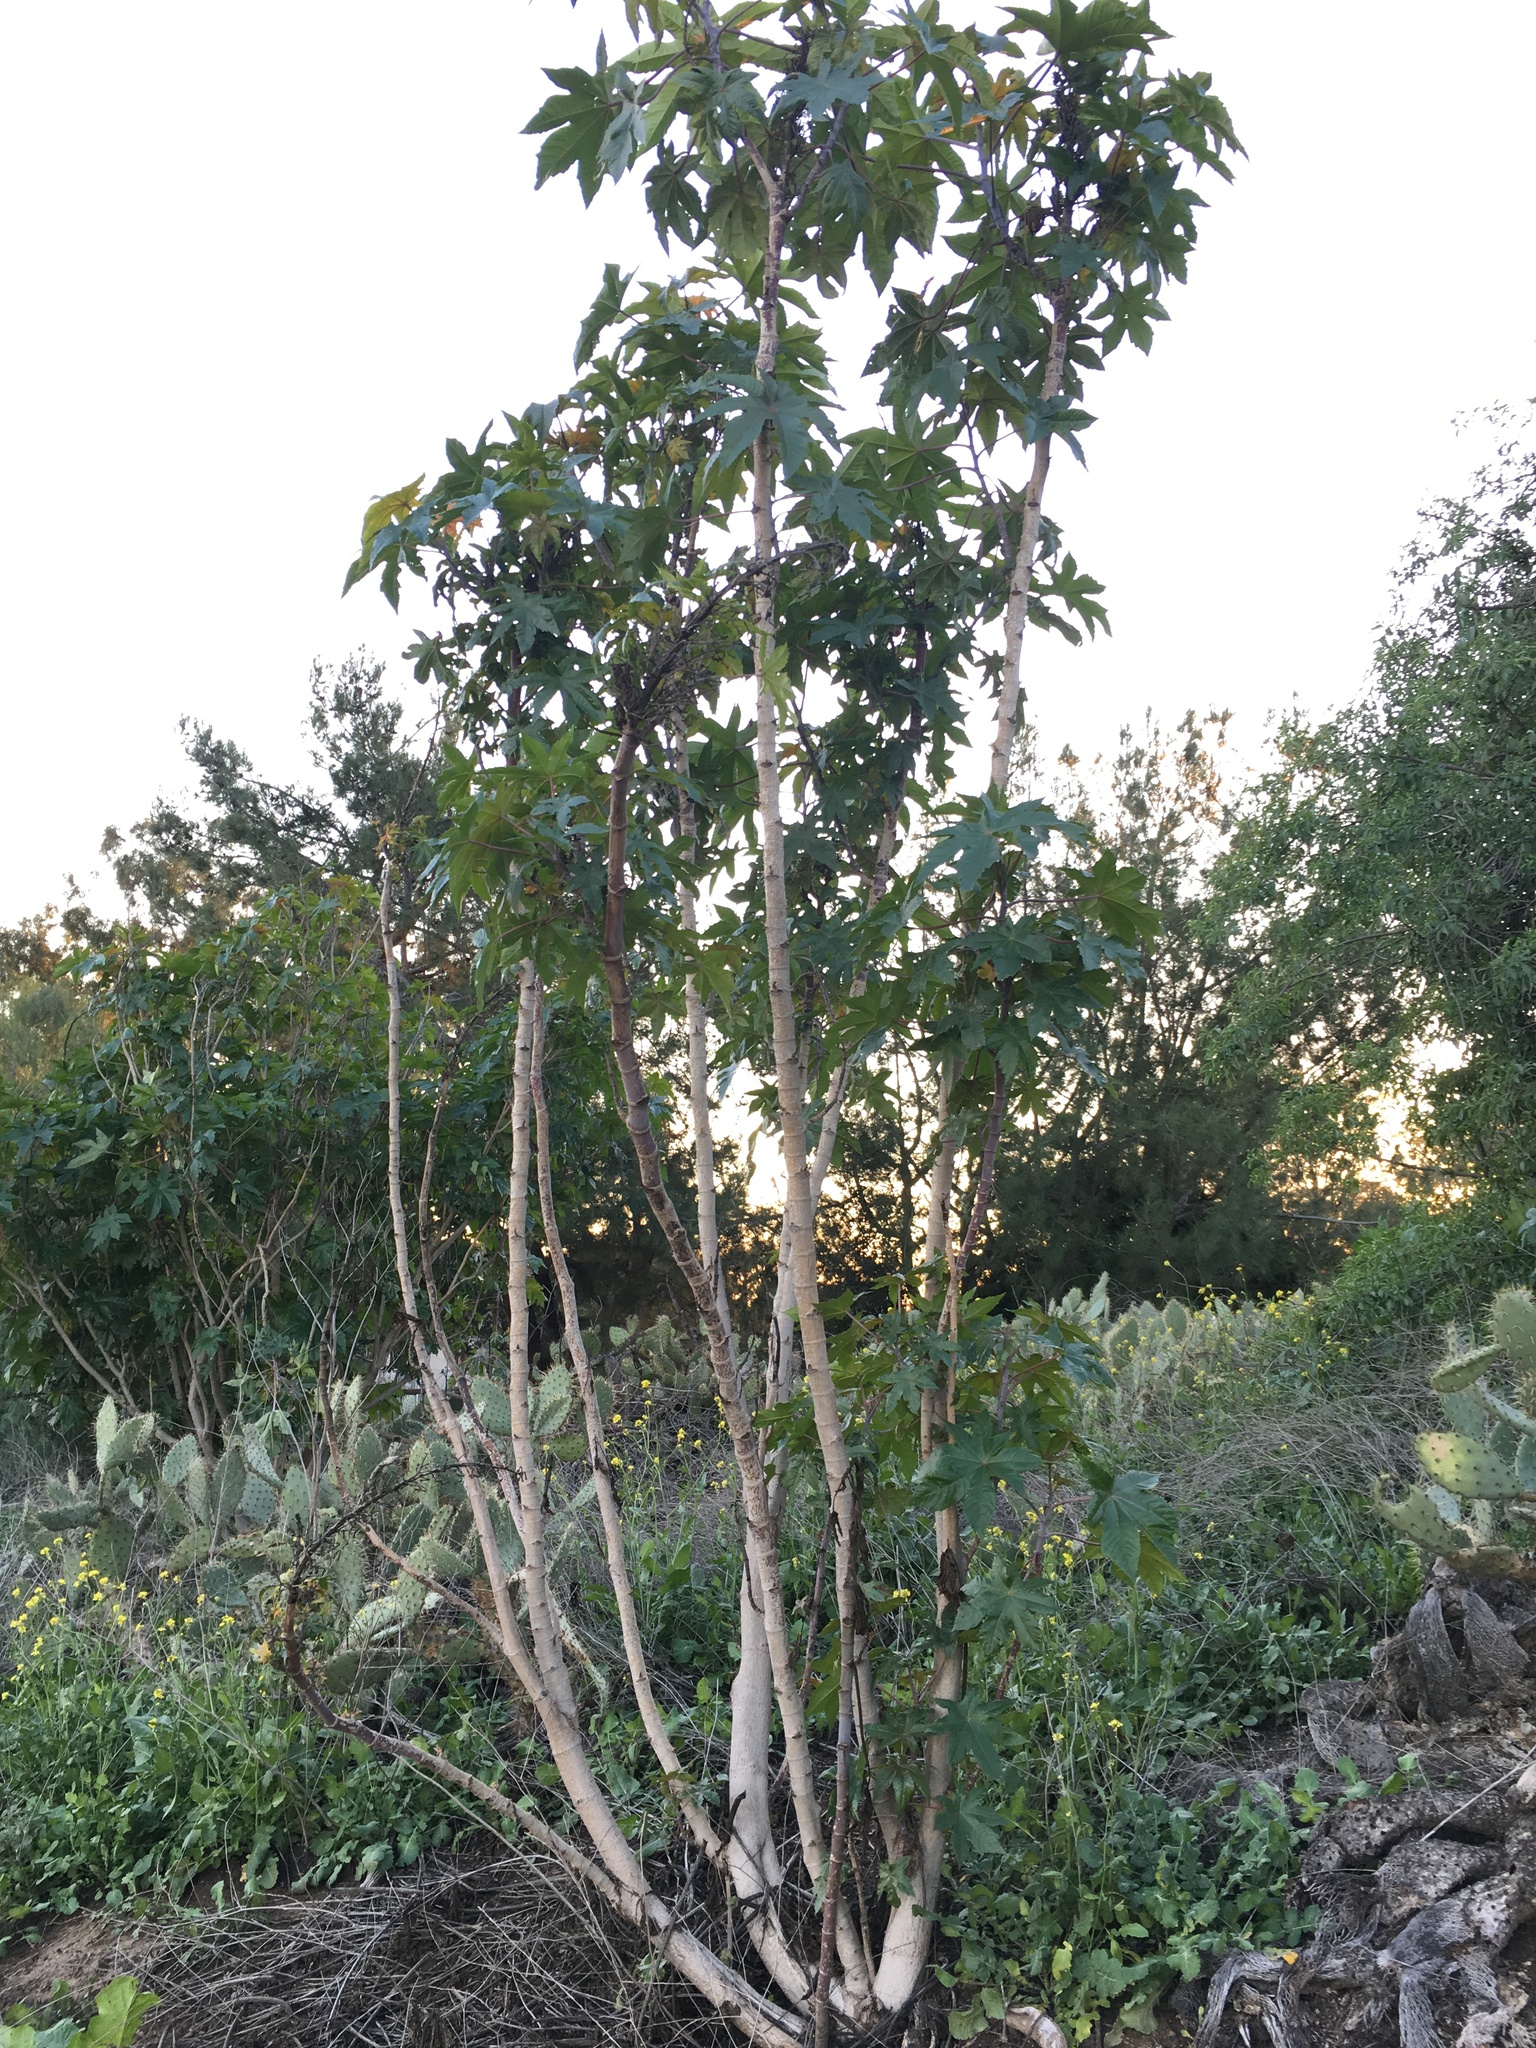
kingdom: Plantae
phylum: Tracheophyta
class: Magnoliopsida
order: Malpighiales
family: Euphorbiaceae
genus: Ricinus
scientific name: Ricinus communis
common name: Castor-oil-plant
